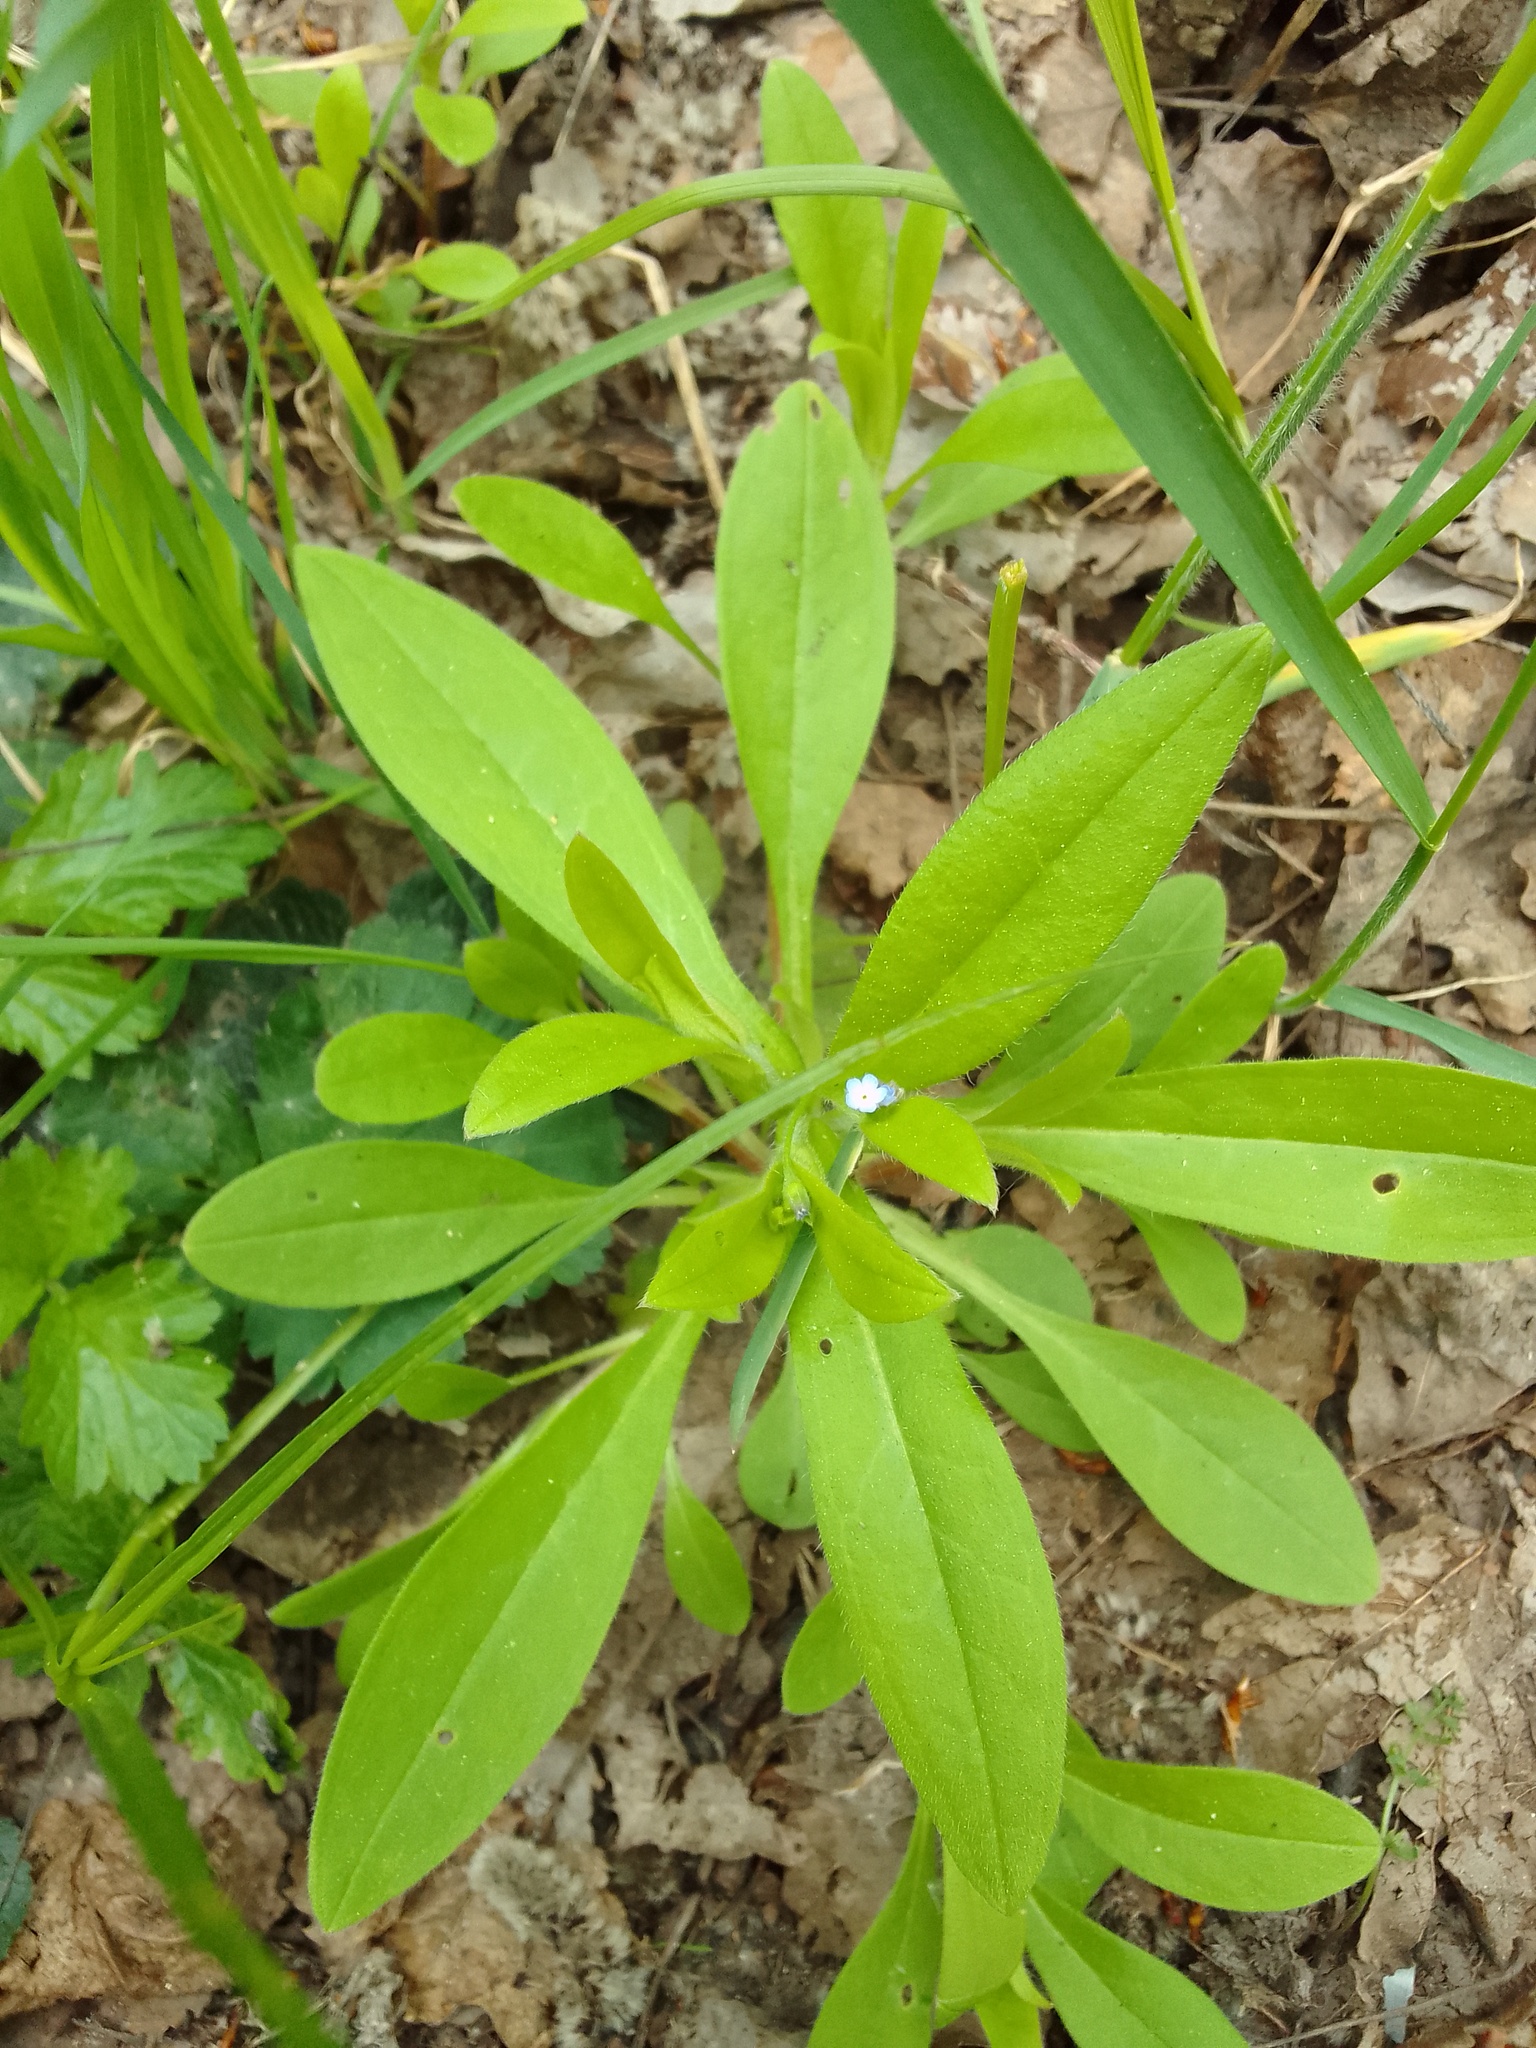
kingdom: Plantae
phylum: Tracheophyta
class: Magnoliopsida
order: Boraginales
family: Boraginaceae
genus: Myosotis
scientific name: Myosotis sparsiflora
